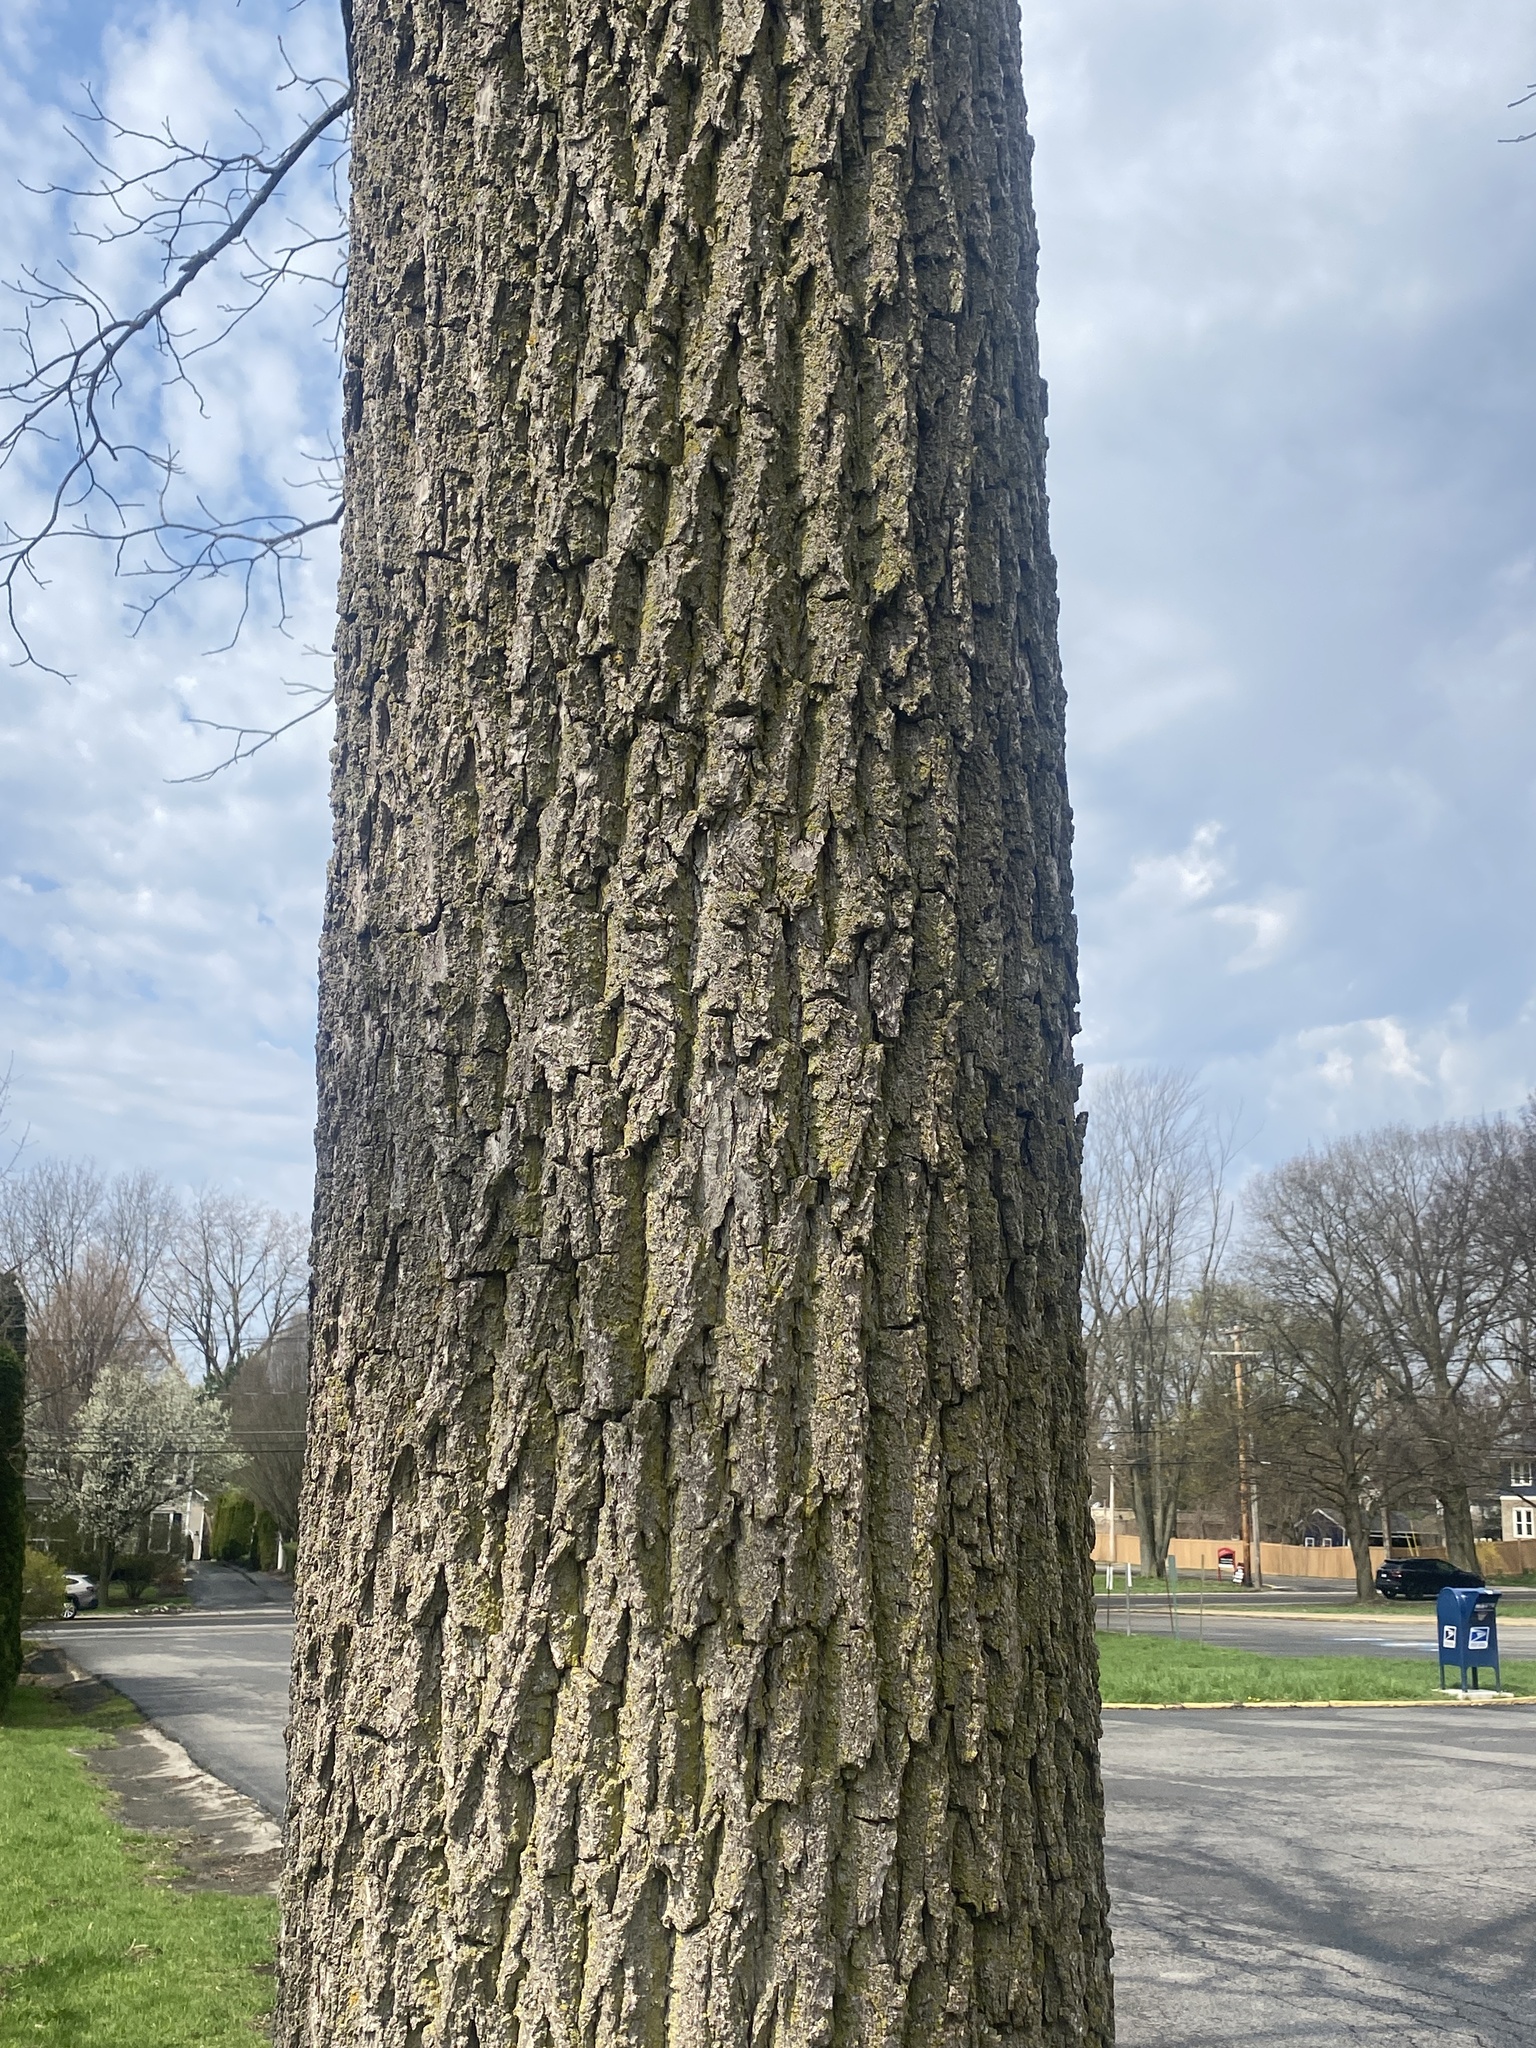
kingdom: Plantae
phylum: Tracheophyta
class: Magnoliopsida
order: Fagales
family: Juglandaceae
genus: Juglans
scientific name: Juglans nigra
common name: Black walnut
